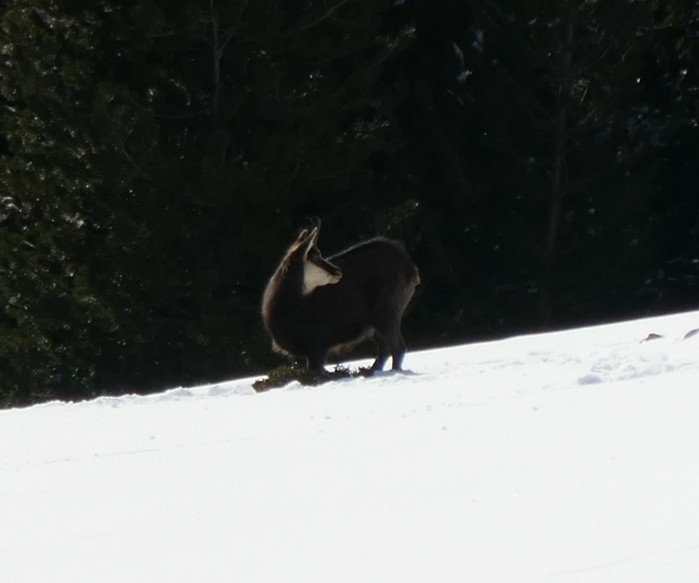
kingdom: Animalia
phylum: Chordata
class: Mammalia
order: Artiodactyla
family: Bovidae
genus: Rupicapra
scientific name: Rupicapra rupicapra
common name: Chamois
